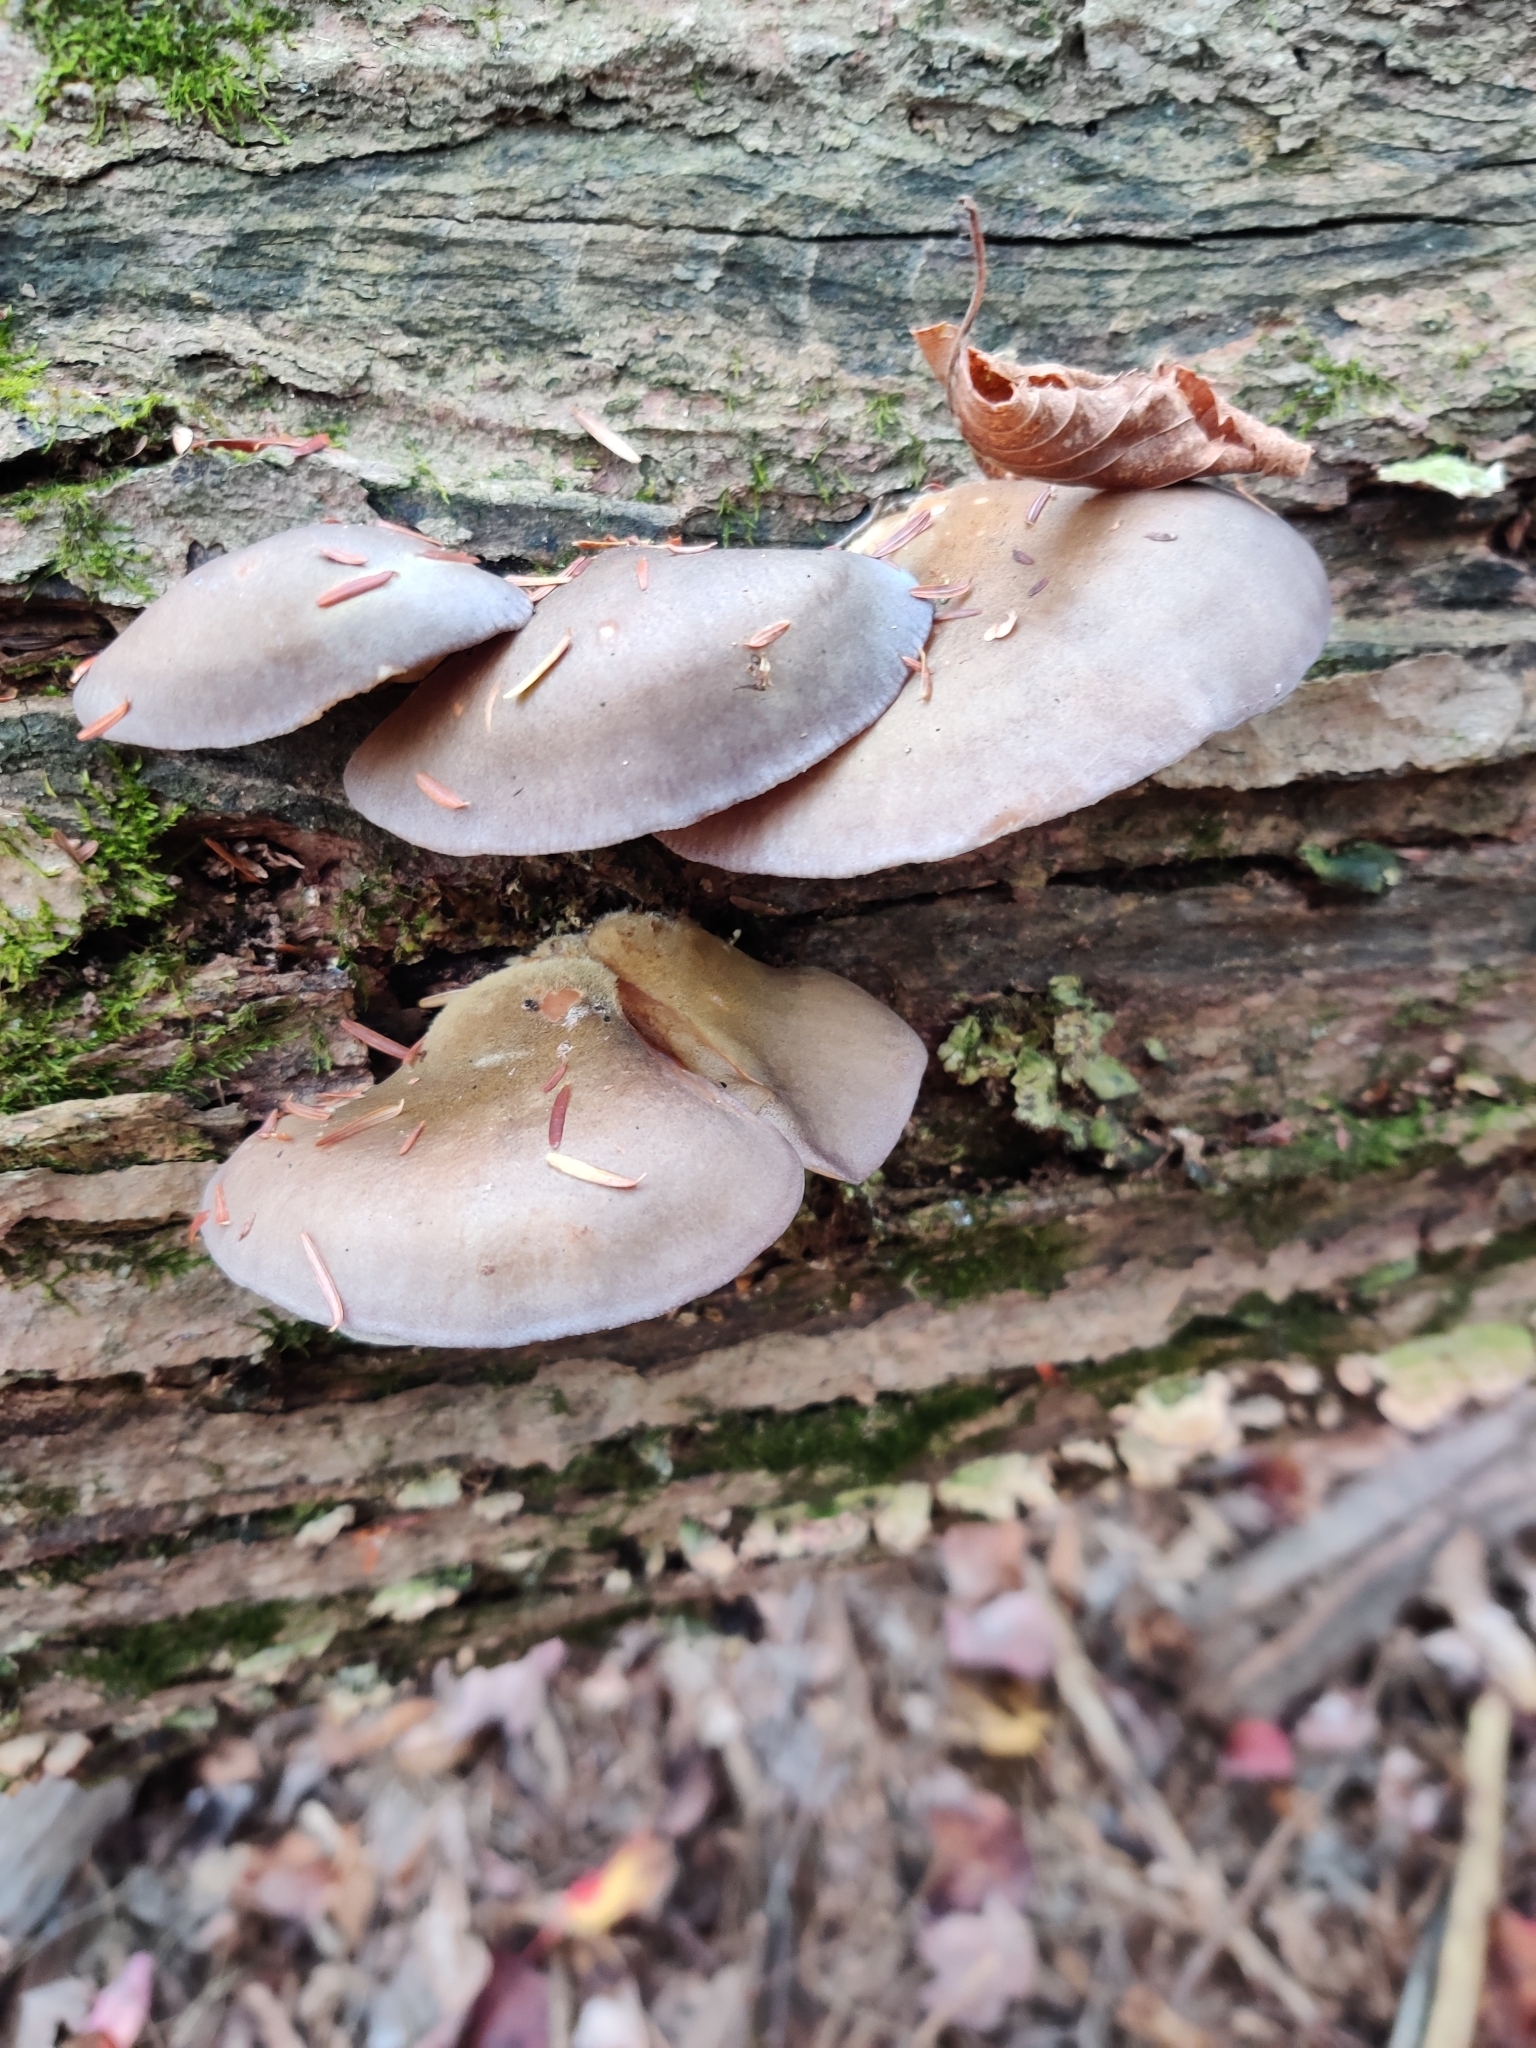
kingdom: Fungi
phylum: Basidiomycota
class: Agaricomycetes
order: Agaricales
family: Sarcomyxaceae
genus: Sarcomyxa
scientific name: Sarcomyxa serotina
